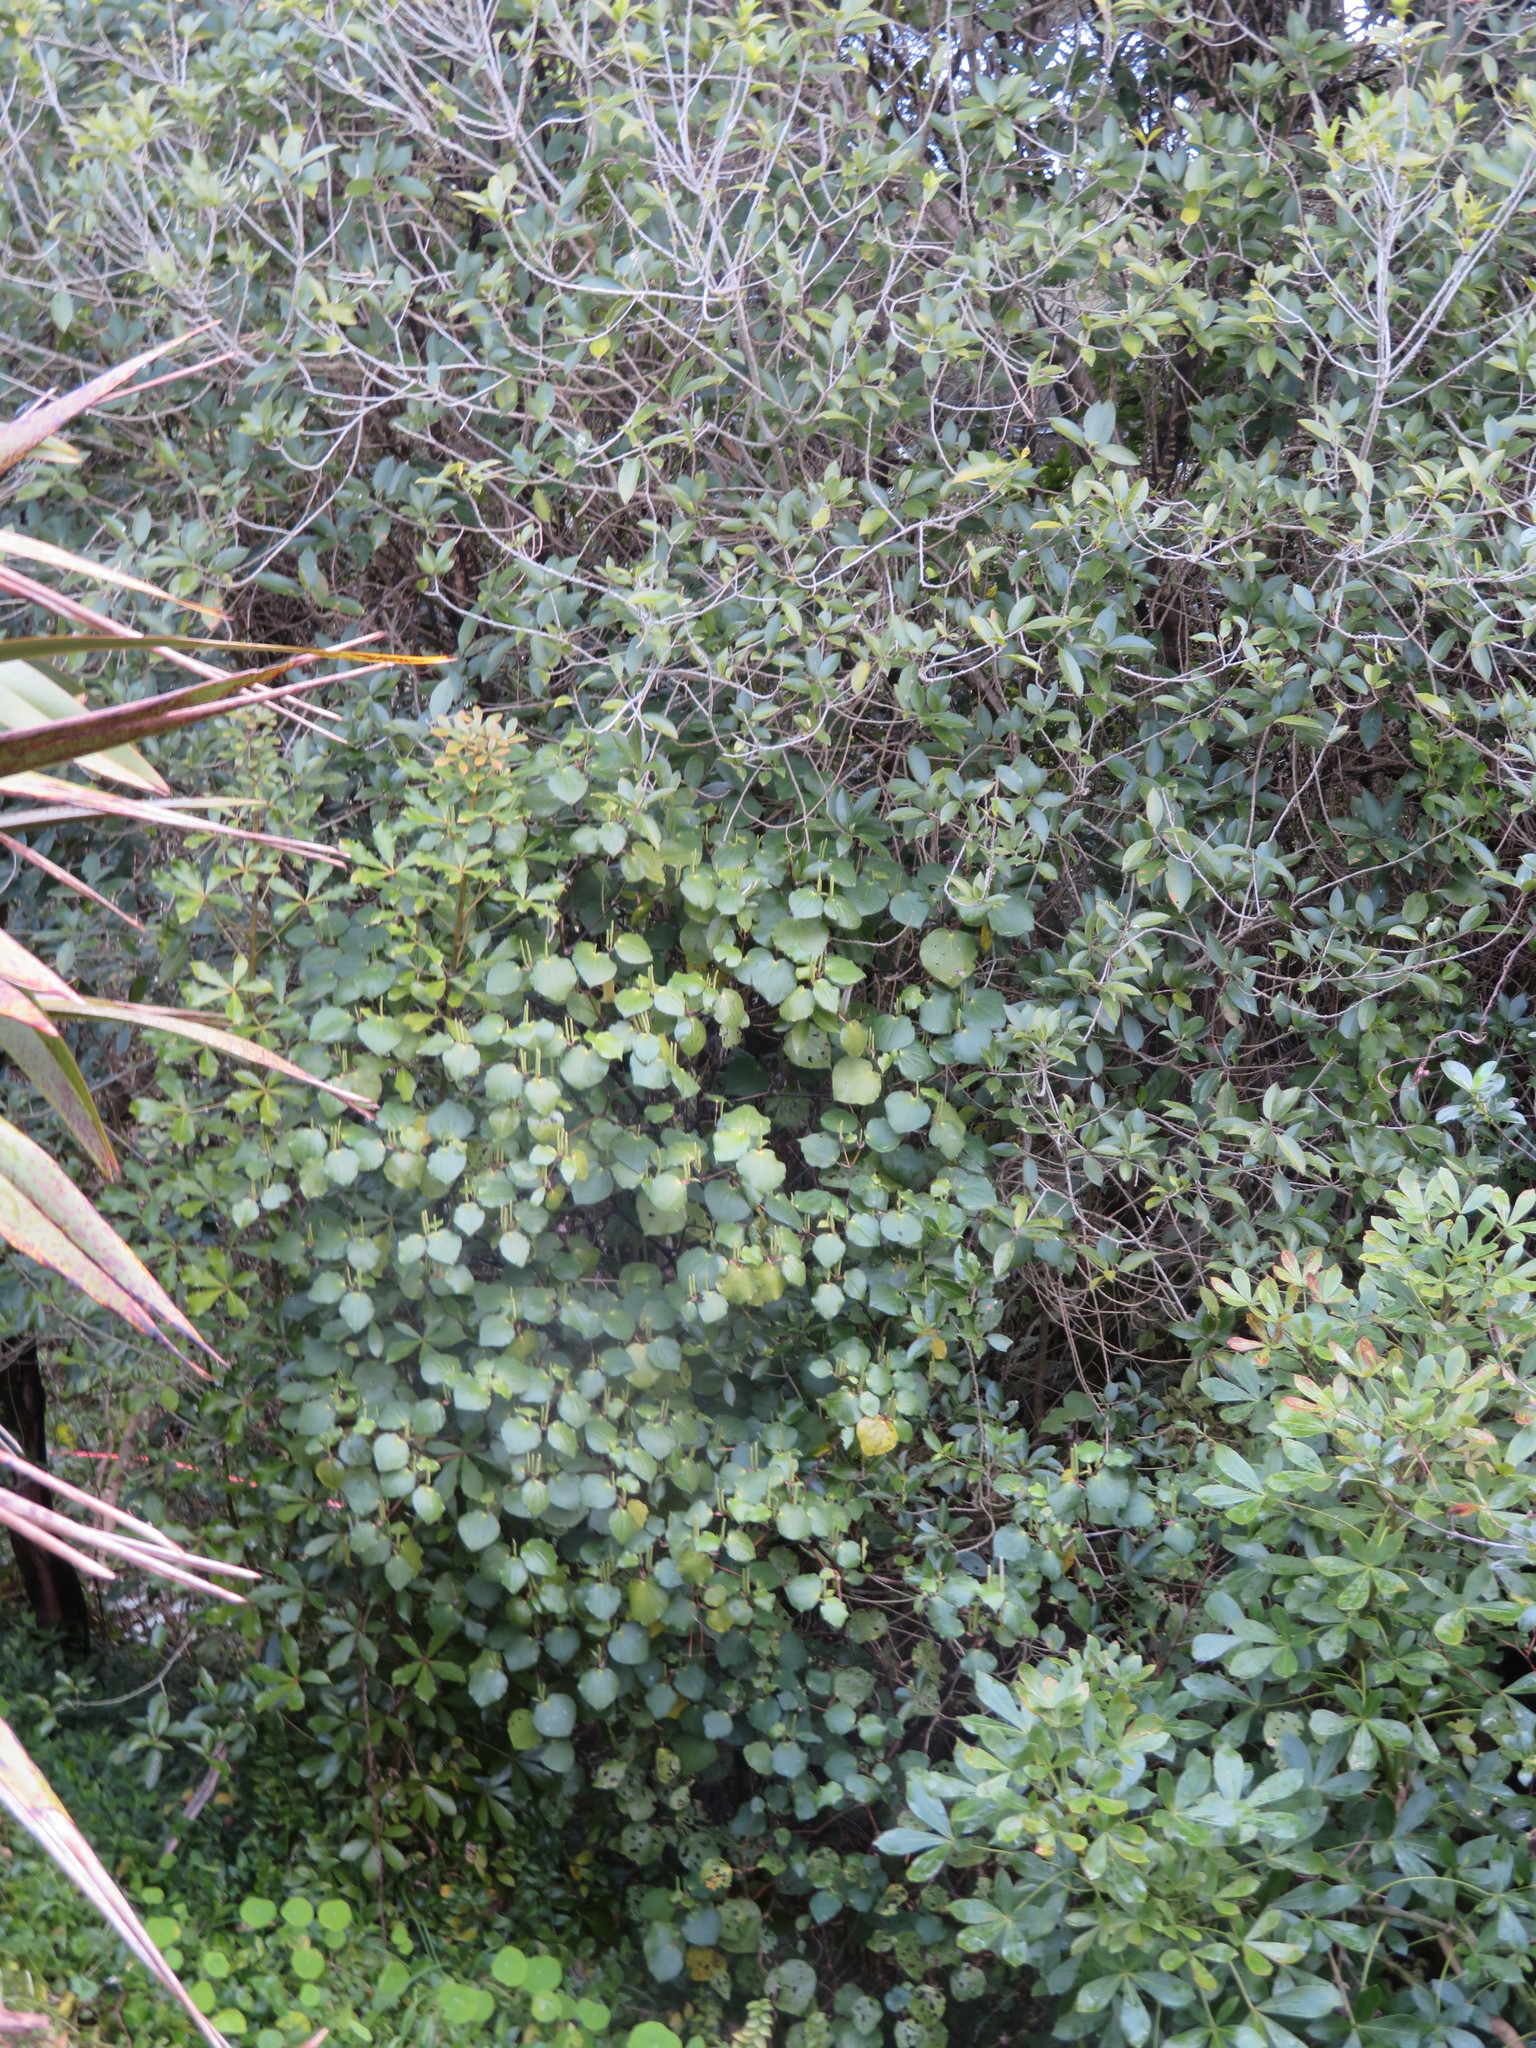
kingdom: Plantae
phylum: Tracheophyta
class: Magnoliopsida
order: Piperales
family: Piperaceae
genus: Macropiper
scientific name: Macropiper excelsum
